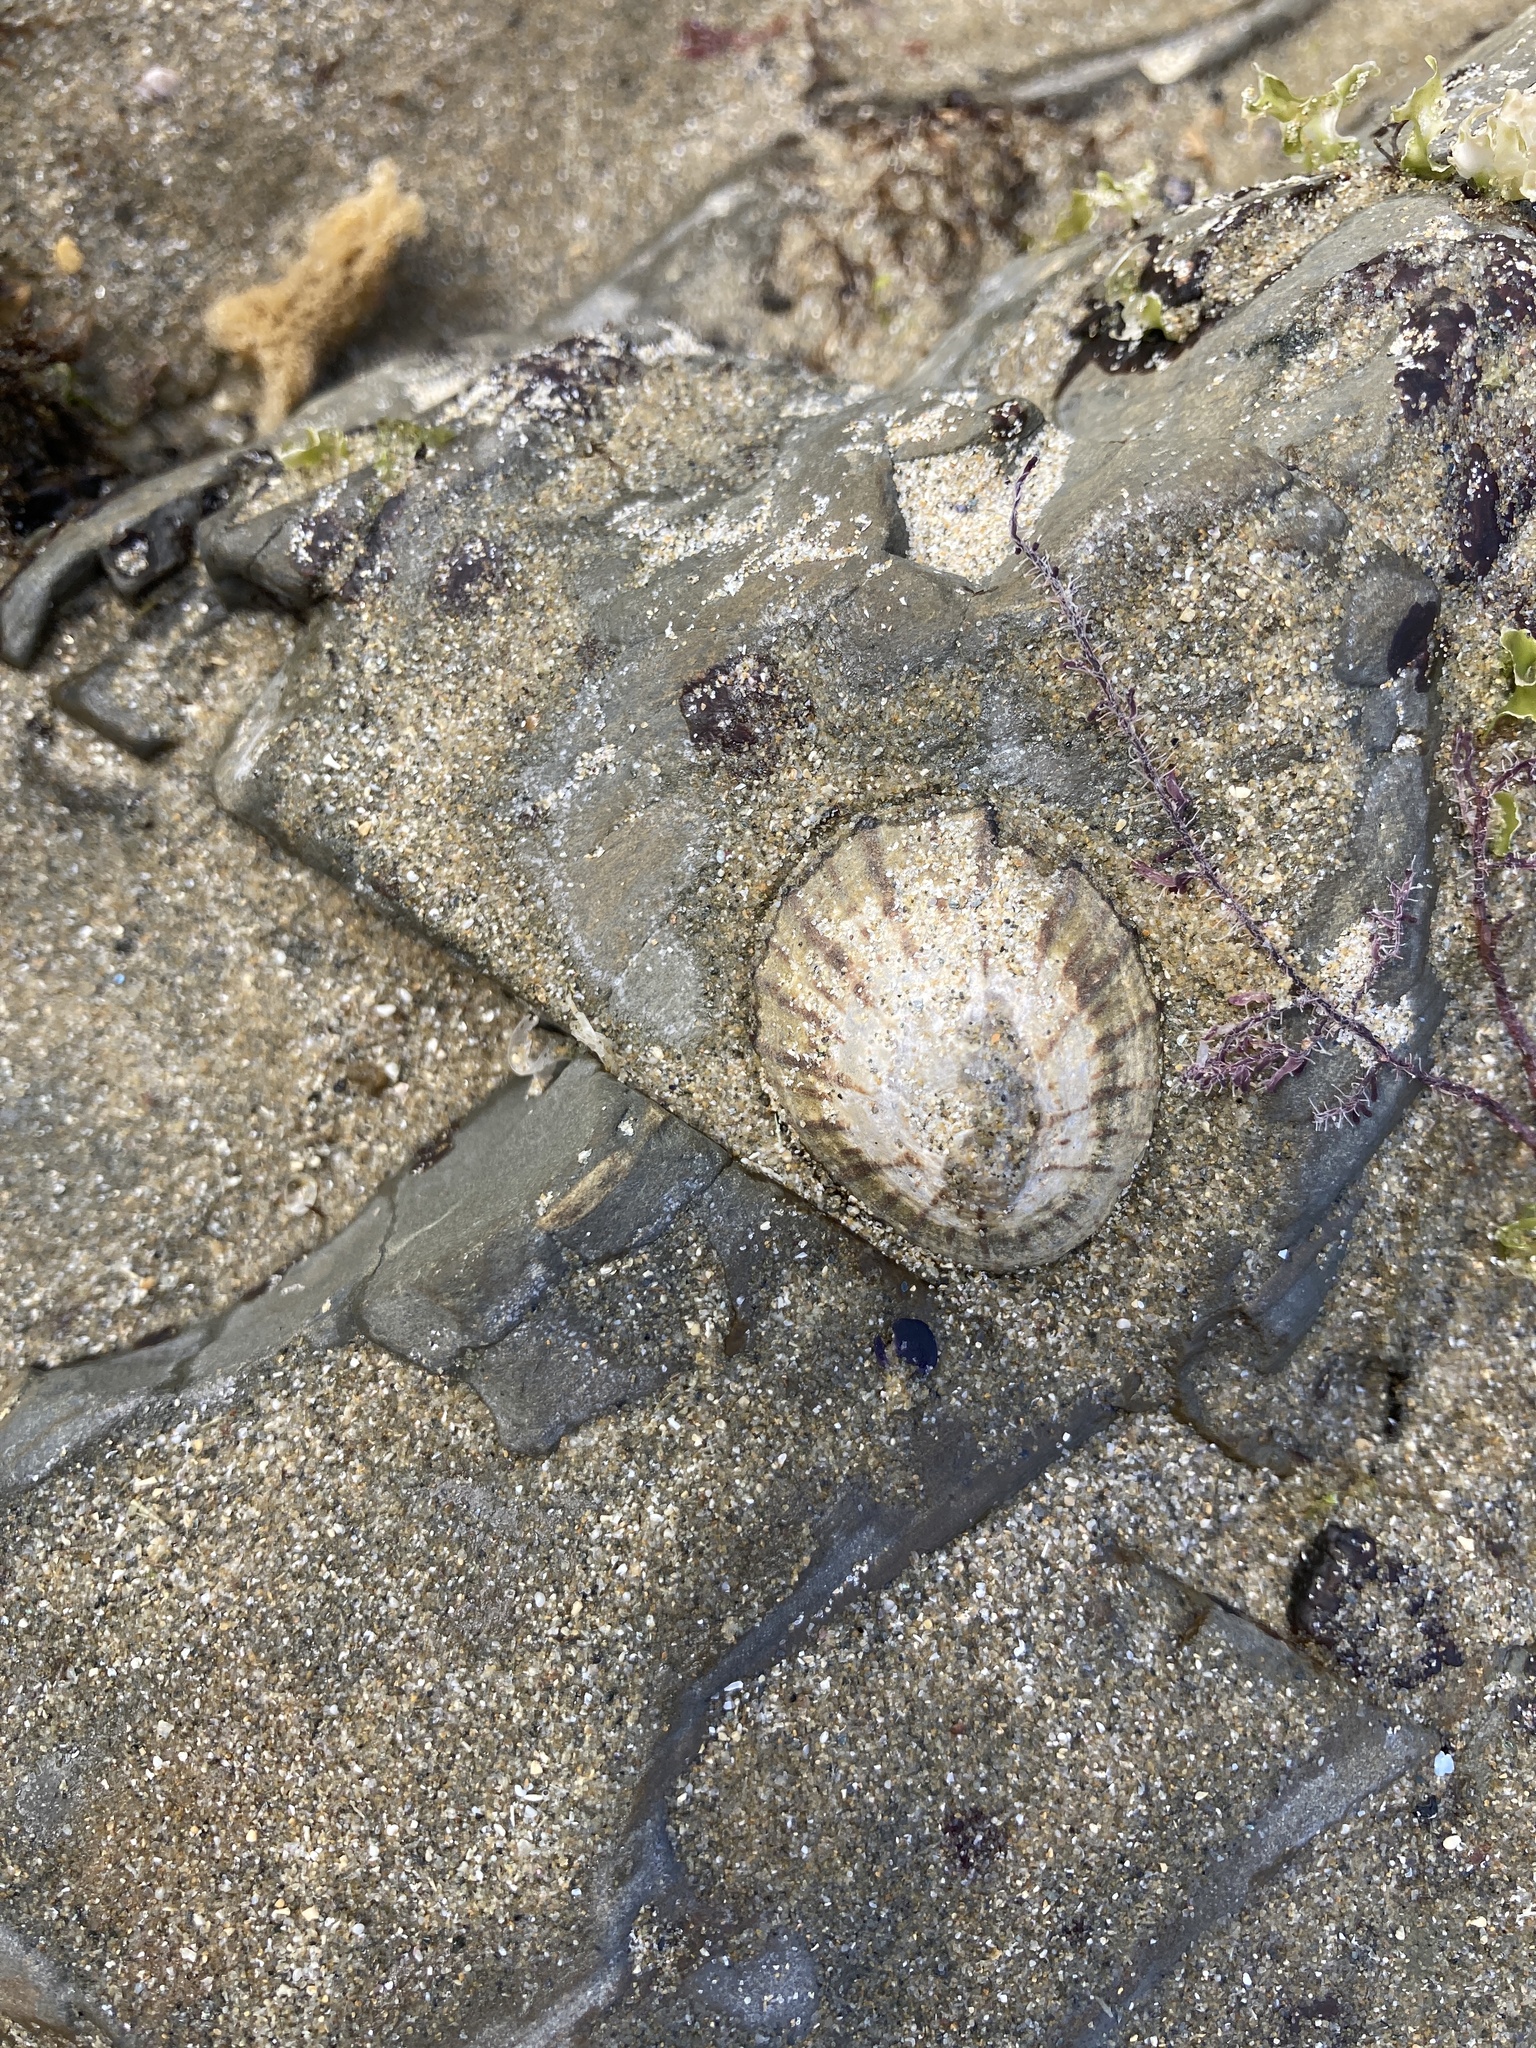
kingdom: Animalia
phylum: Mollusca
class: Gastropoda
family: Nacellidae
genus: Cellana
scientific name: Cellana radians
